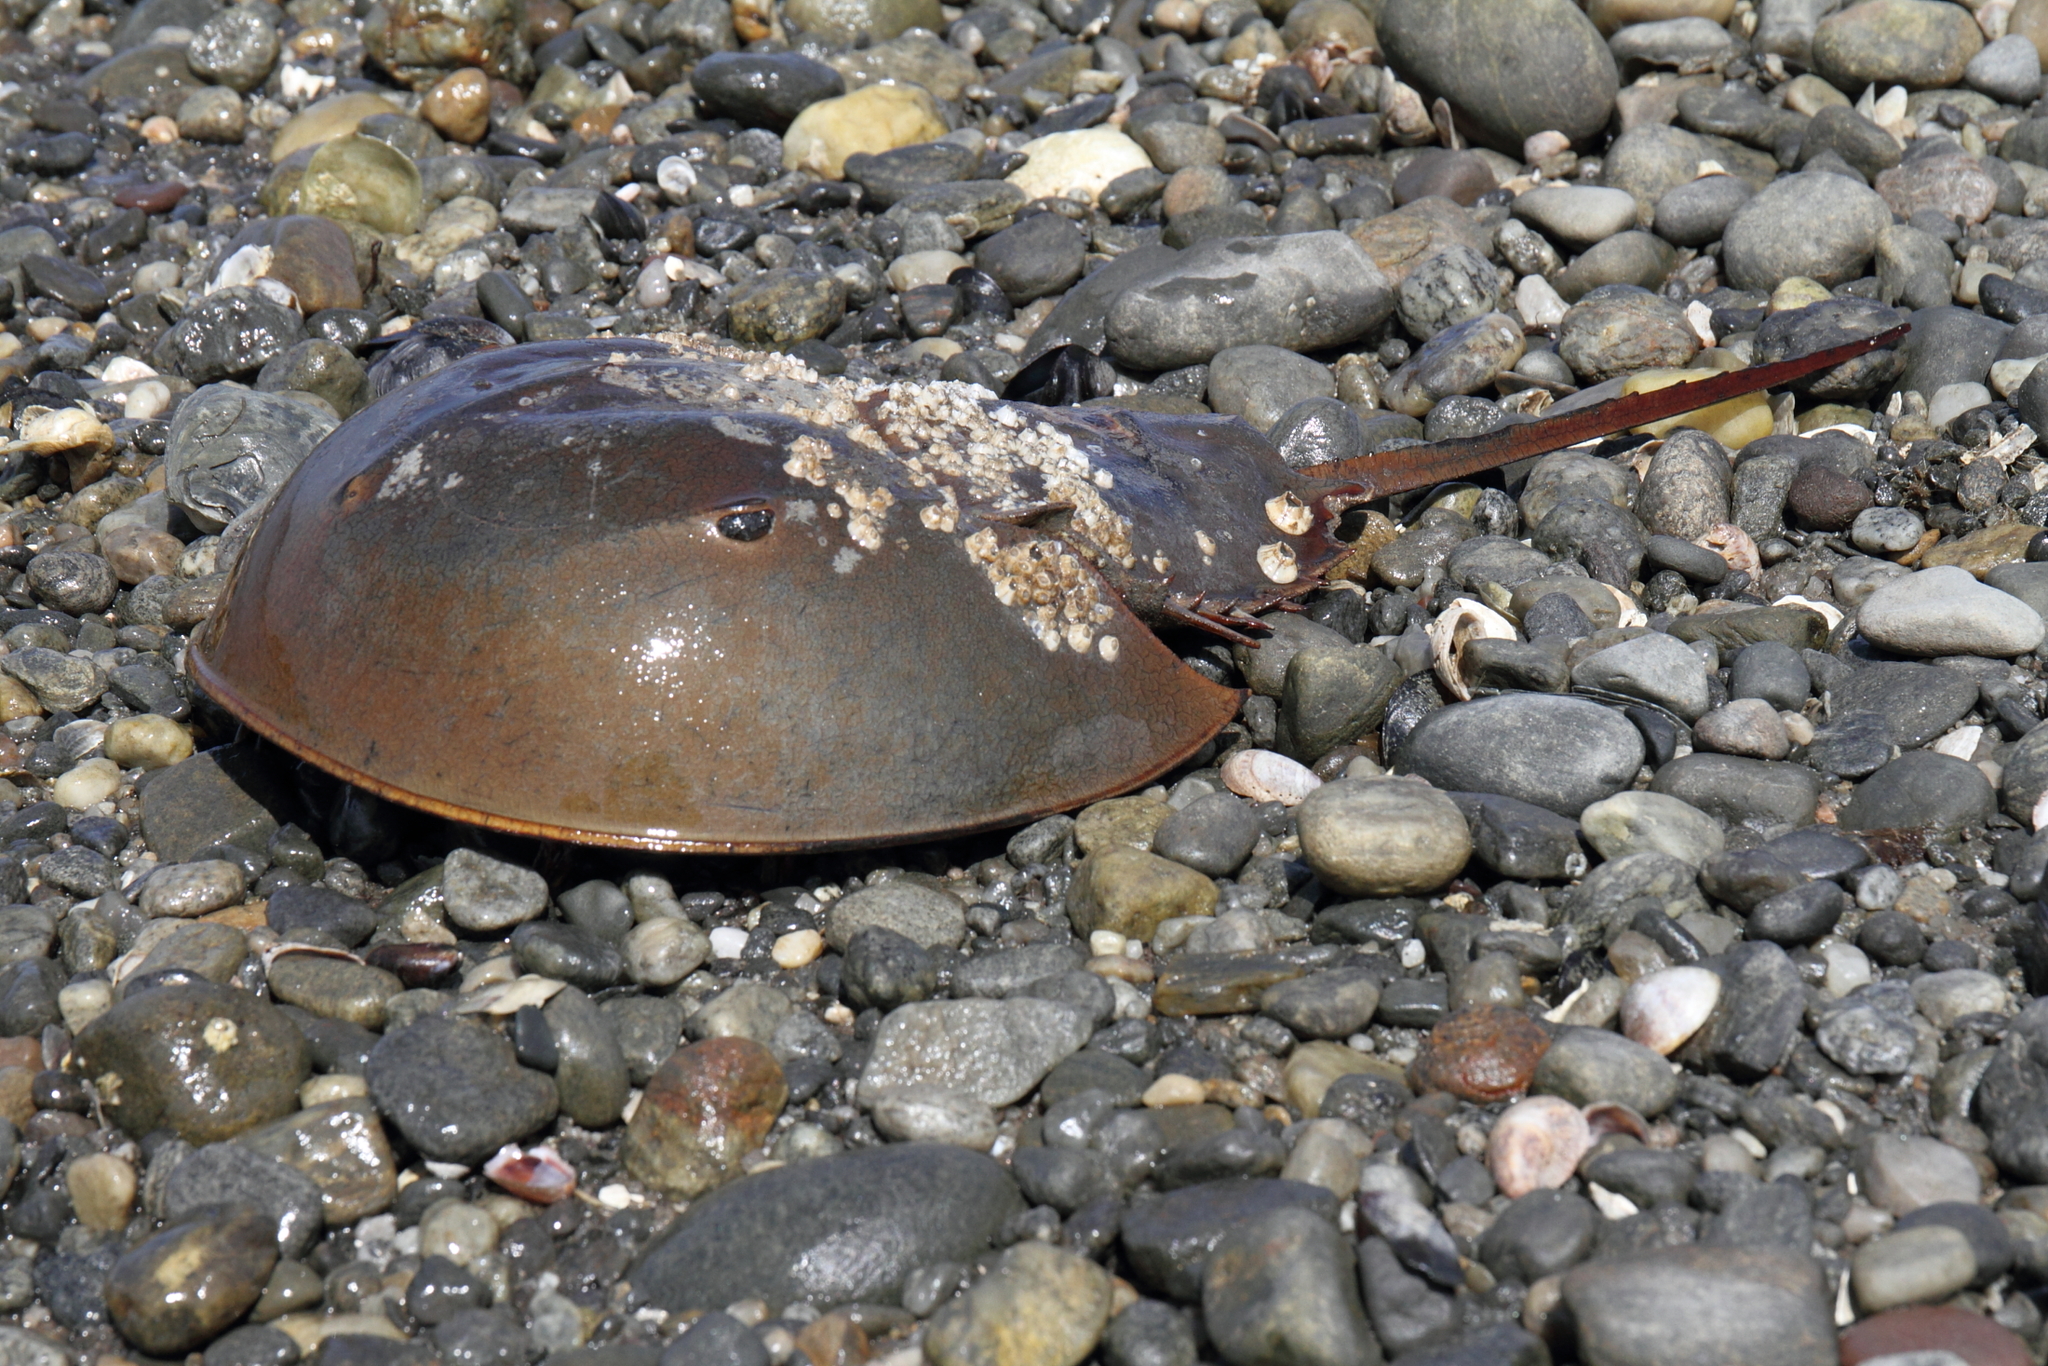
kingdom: Animalia
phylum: Arthropoda
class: Merostomata
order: Xiphosurida
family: Limulidae
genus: Limulus
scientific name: Limulus polyphemus
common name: Horseshoe crab
